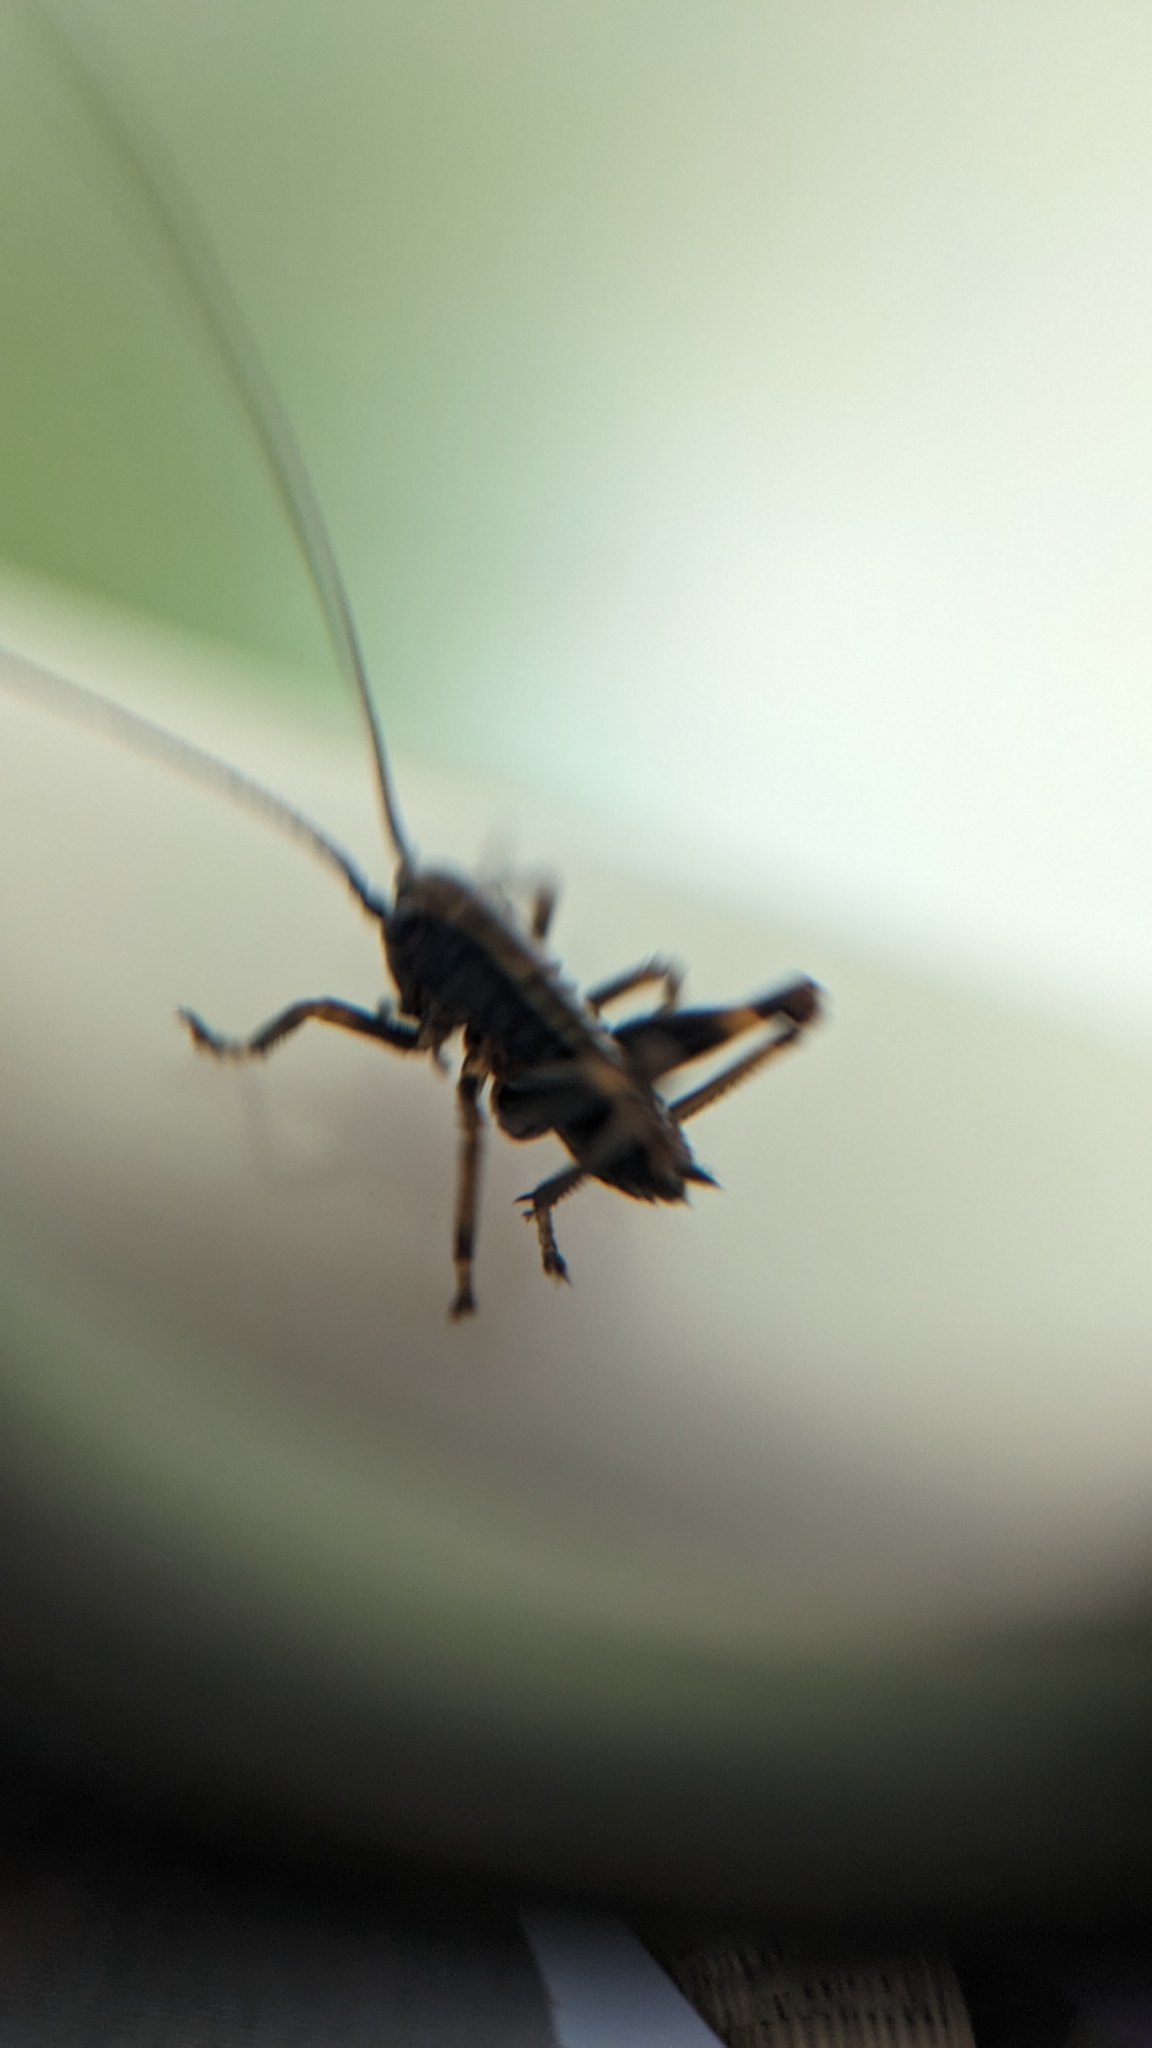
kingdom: Animalia
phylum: Arthropoda
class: Insecta
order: Orthoptera
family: Tettigoniidae
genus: Pholidoptera
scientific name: Pholidoptera griseoaptera
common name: Dark bush-cricket
